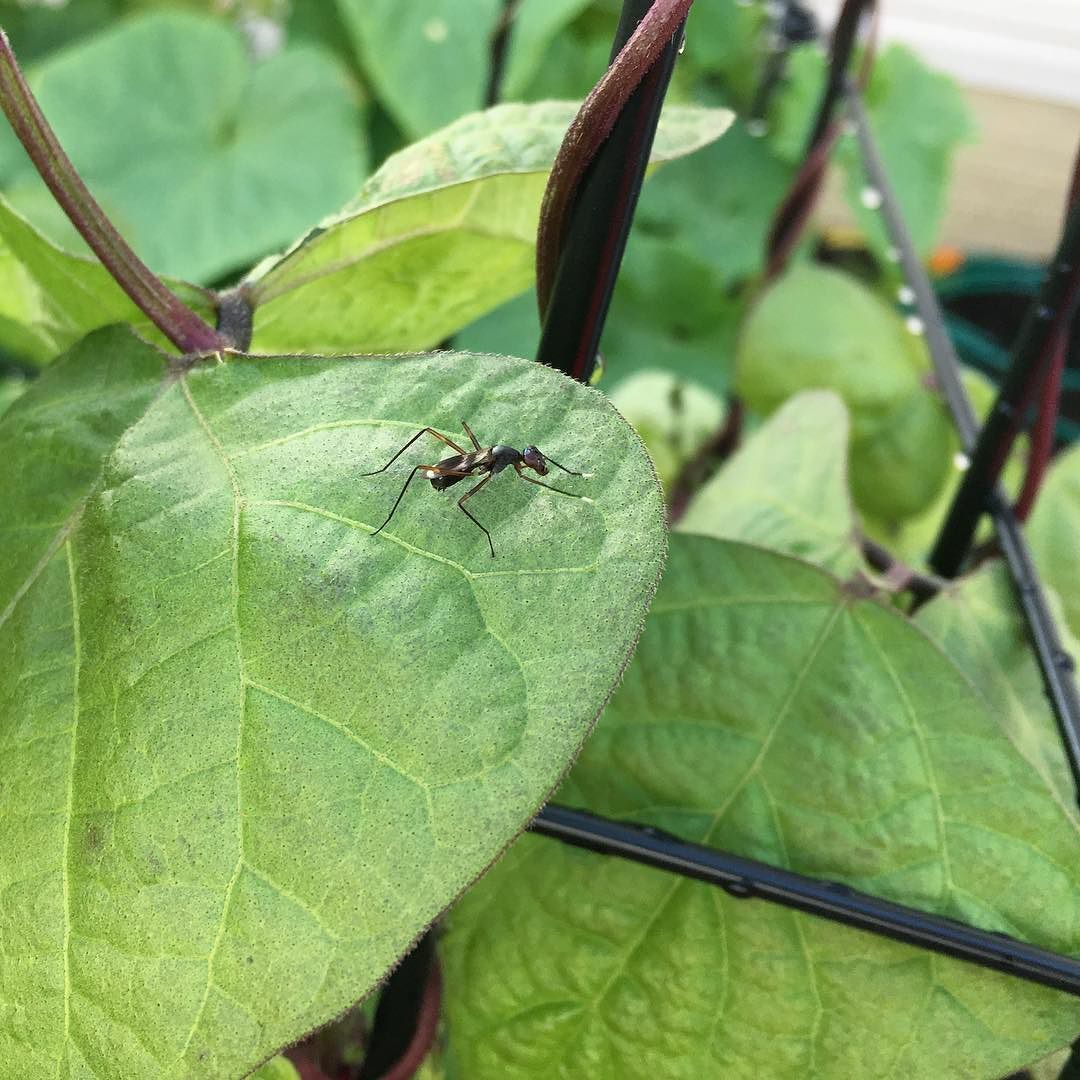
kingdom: Animalia
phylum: Arthropoda
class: Insecta
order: Diptera
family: Micropezidae
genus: Taeniaptera
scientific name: Taeniaptera trivittata
